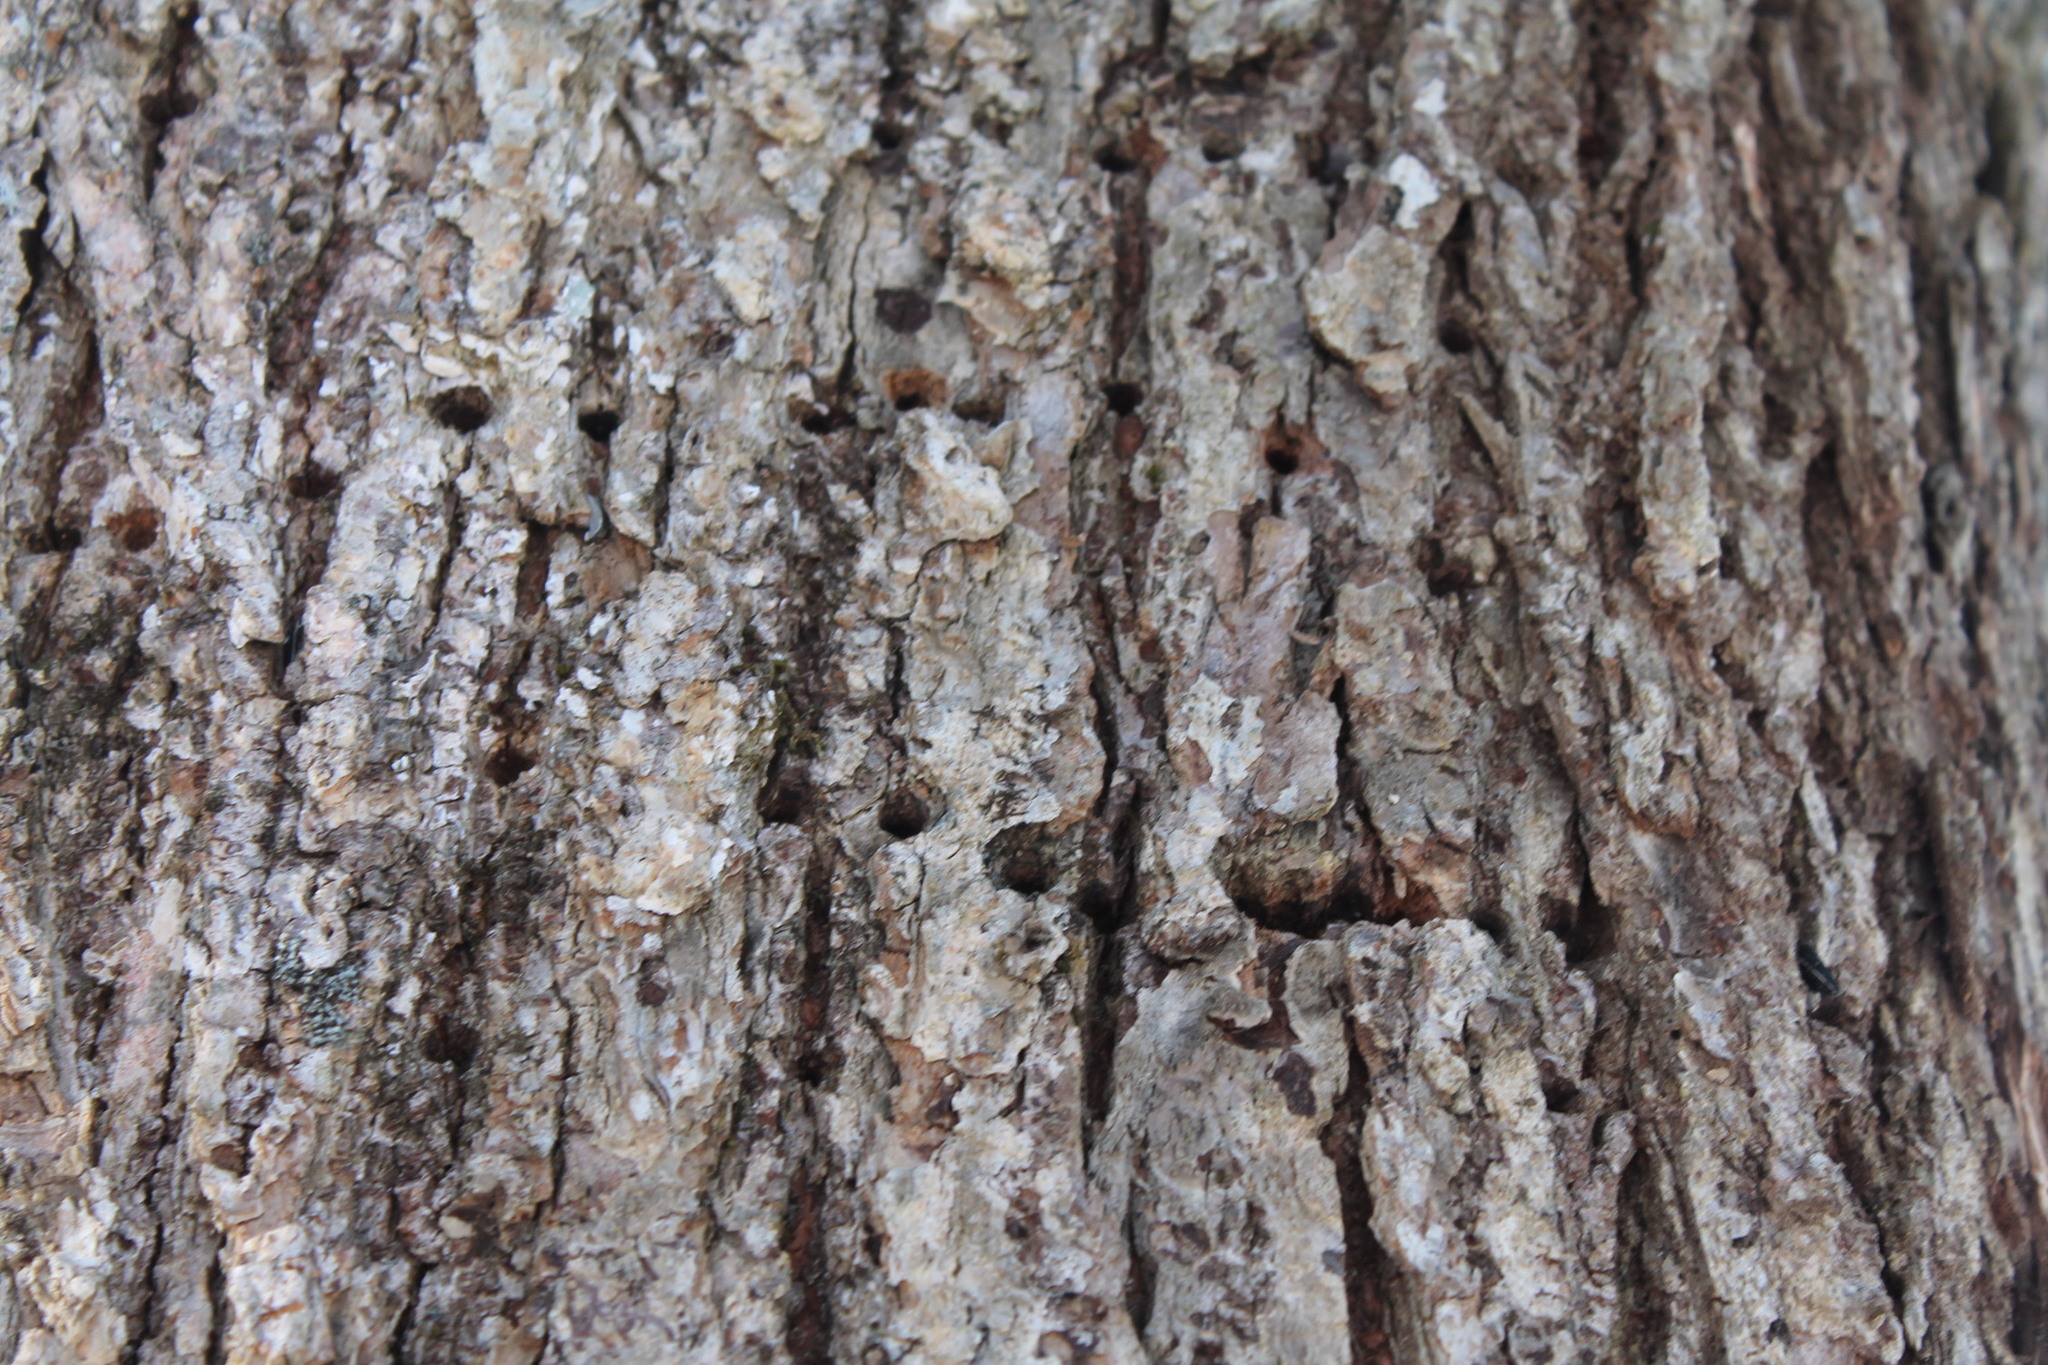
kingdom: Animalia
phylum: Chordata
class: Aves
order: Piciformes
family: Picidae
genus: Sphyrapicus
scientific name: Sphyrapicus varius
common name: Yellow-bellied sapsucker
